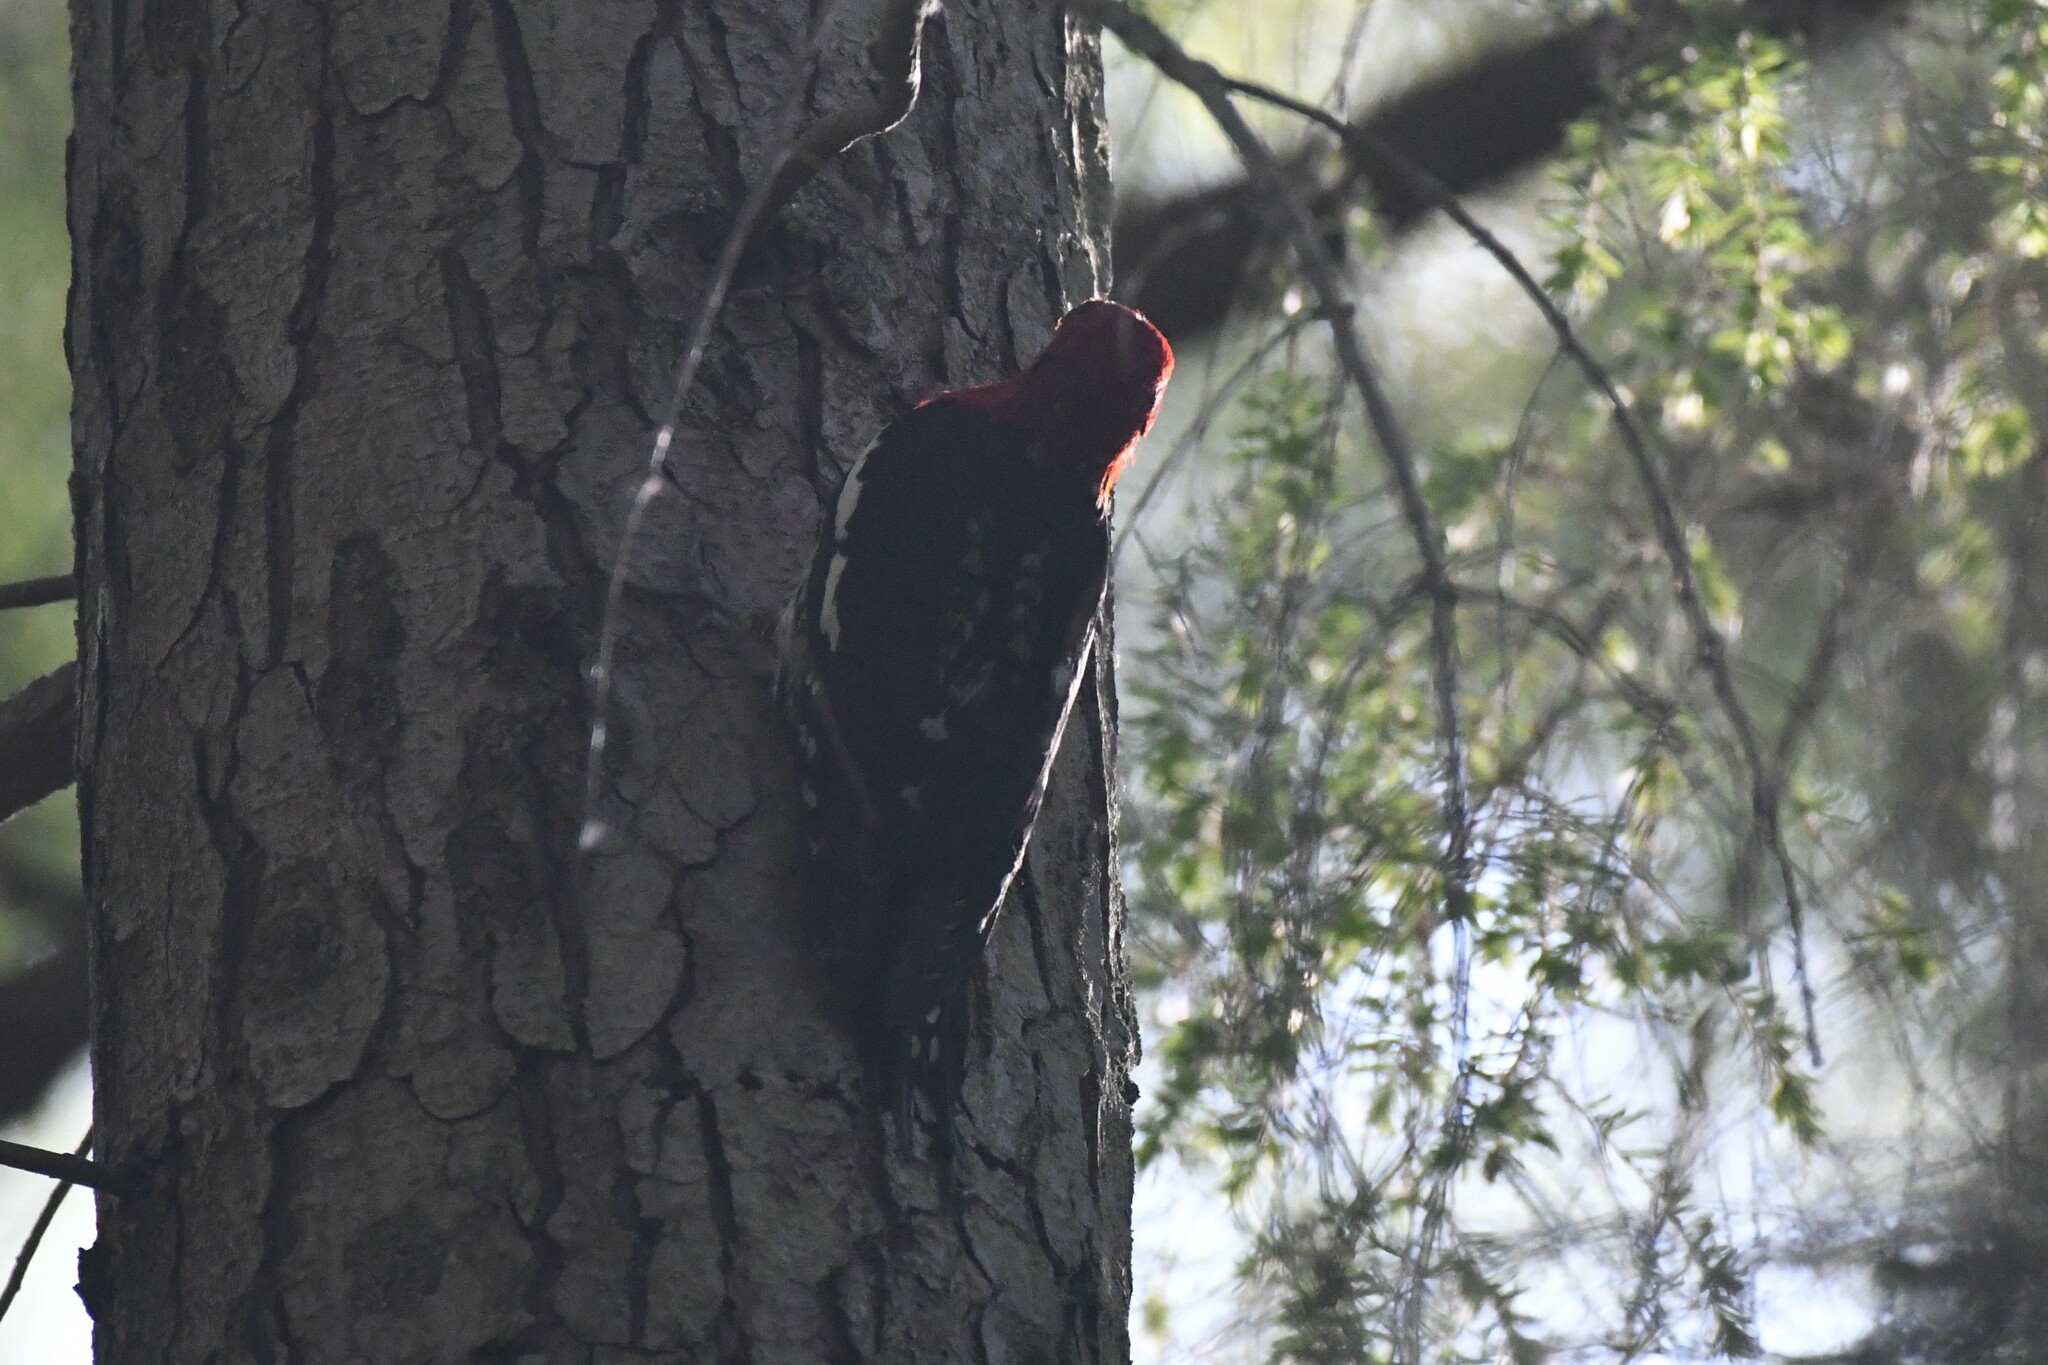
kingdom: Animalia
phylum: Chordata
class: Aves
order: Piciformes
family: Picidae
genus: Sphyrapicus
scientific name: Sphyrapicus ruber
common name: Red-breasted sapsucker
